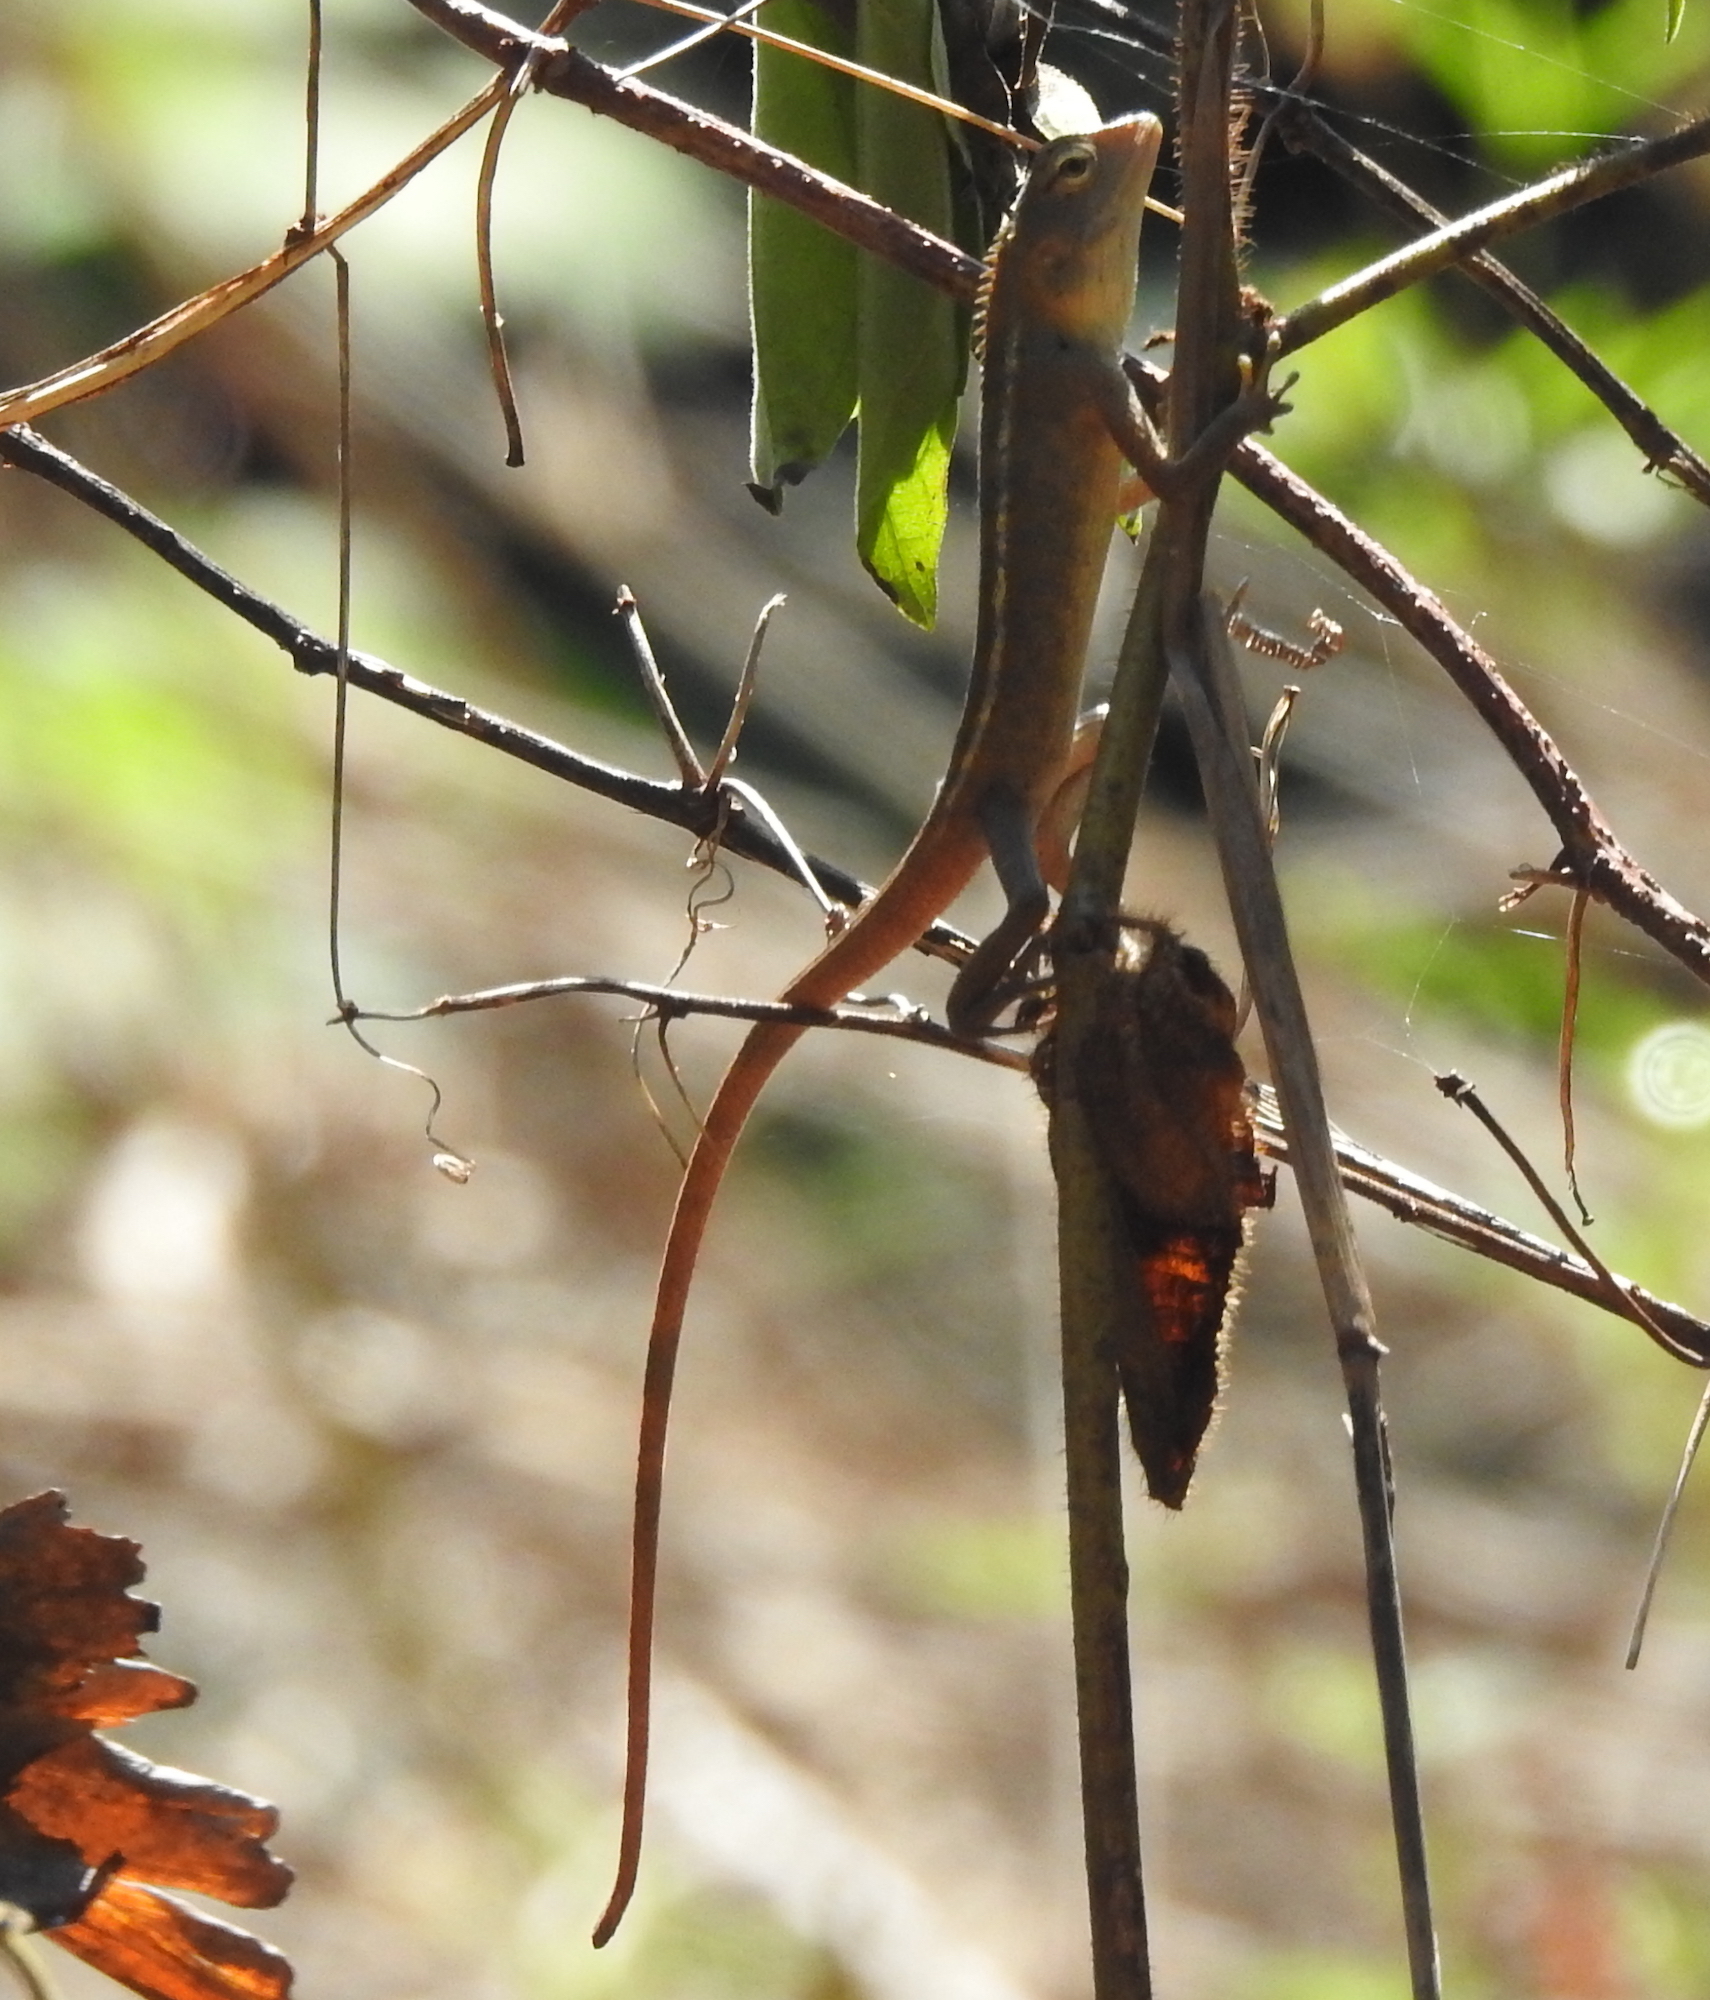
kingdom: Animalia
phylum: Chordata
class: Squamata
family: Agamidae
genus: Calotes
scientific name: Calotes versicolor
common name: Oriental garden lizard
